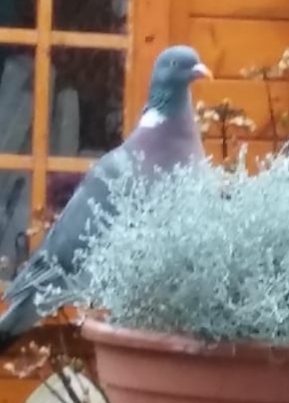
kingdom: Animalia
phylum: Chordata
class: Aves
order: Columbiformes
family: Columbidae
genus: Columba
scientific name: Columba palumbus
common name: Common wood pigeon
